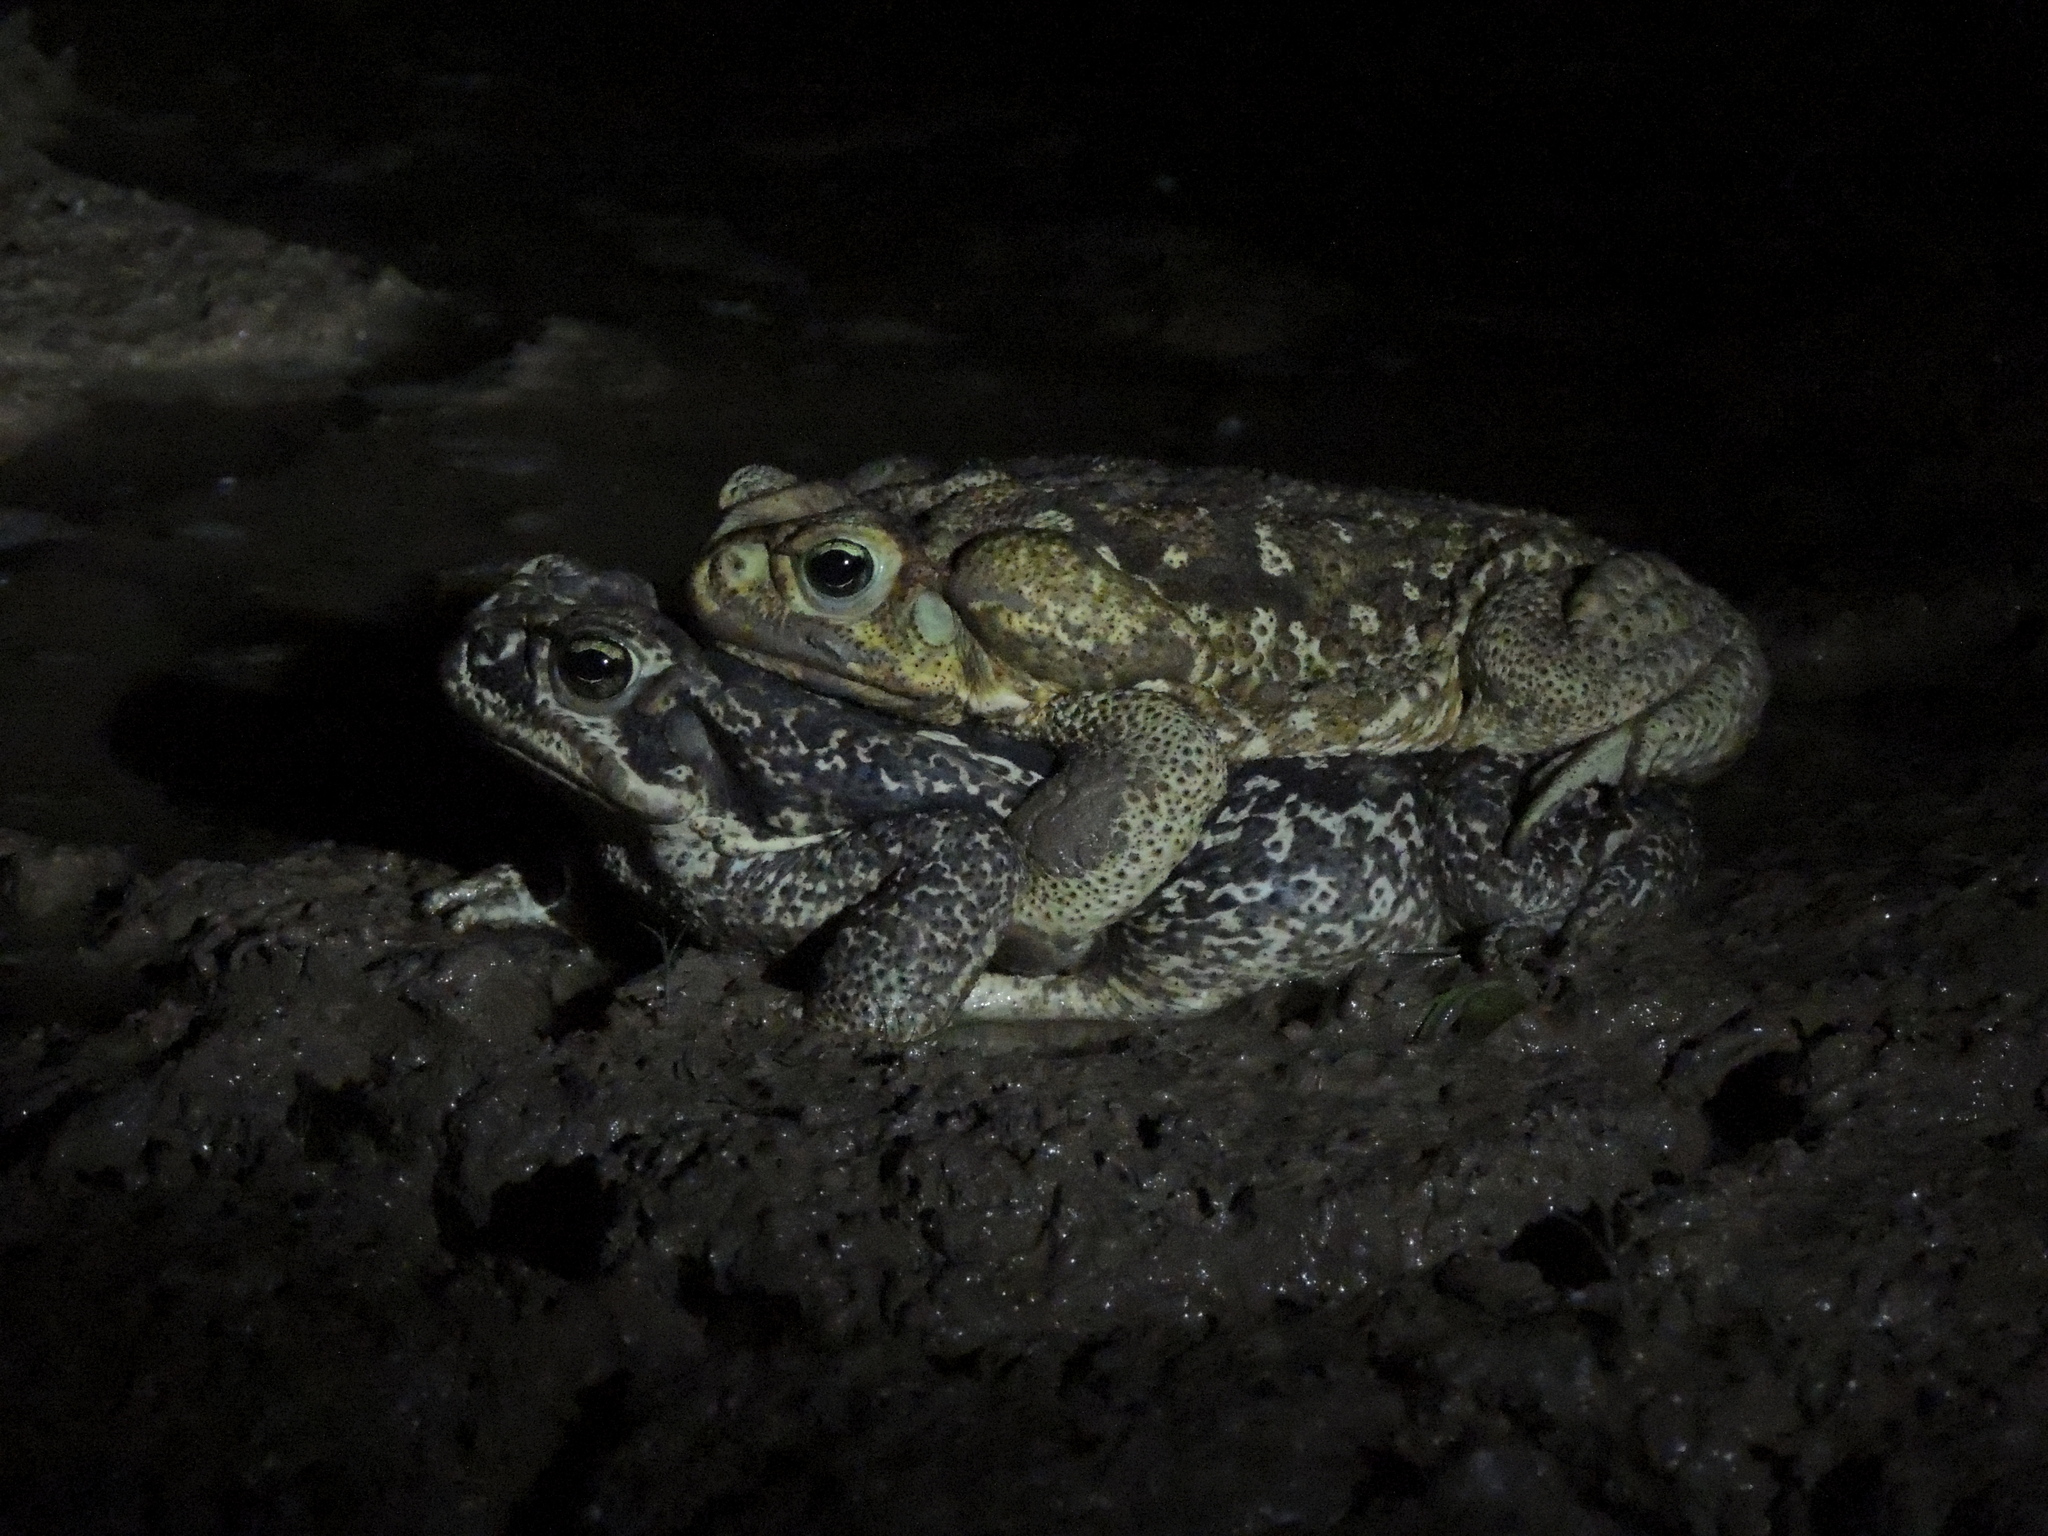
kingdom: Animalia
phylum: Chordata
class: Amphibia
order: Anura
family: Bufonidae
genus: Rhinella
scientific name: Rhinella diptycha
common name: Cope's toad
